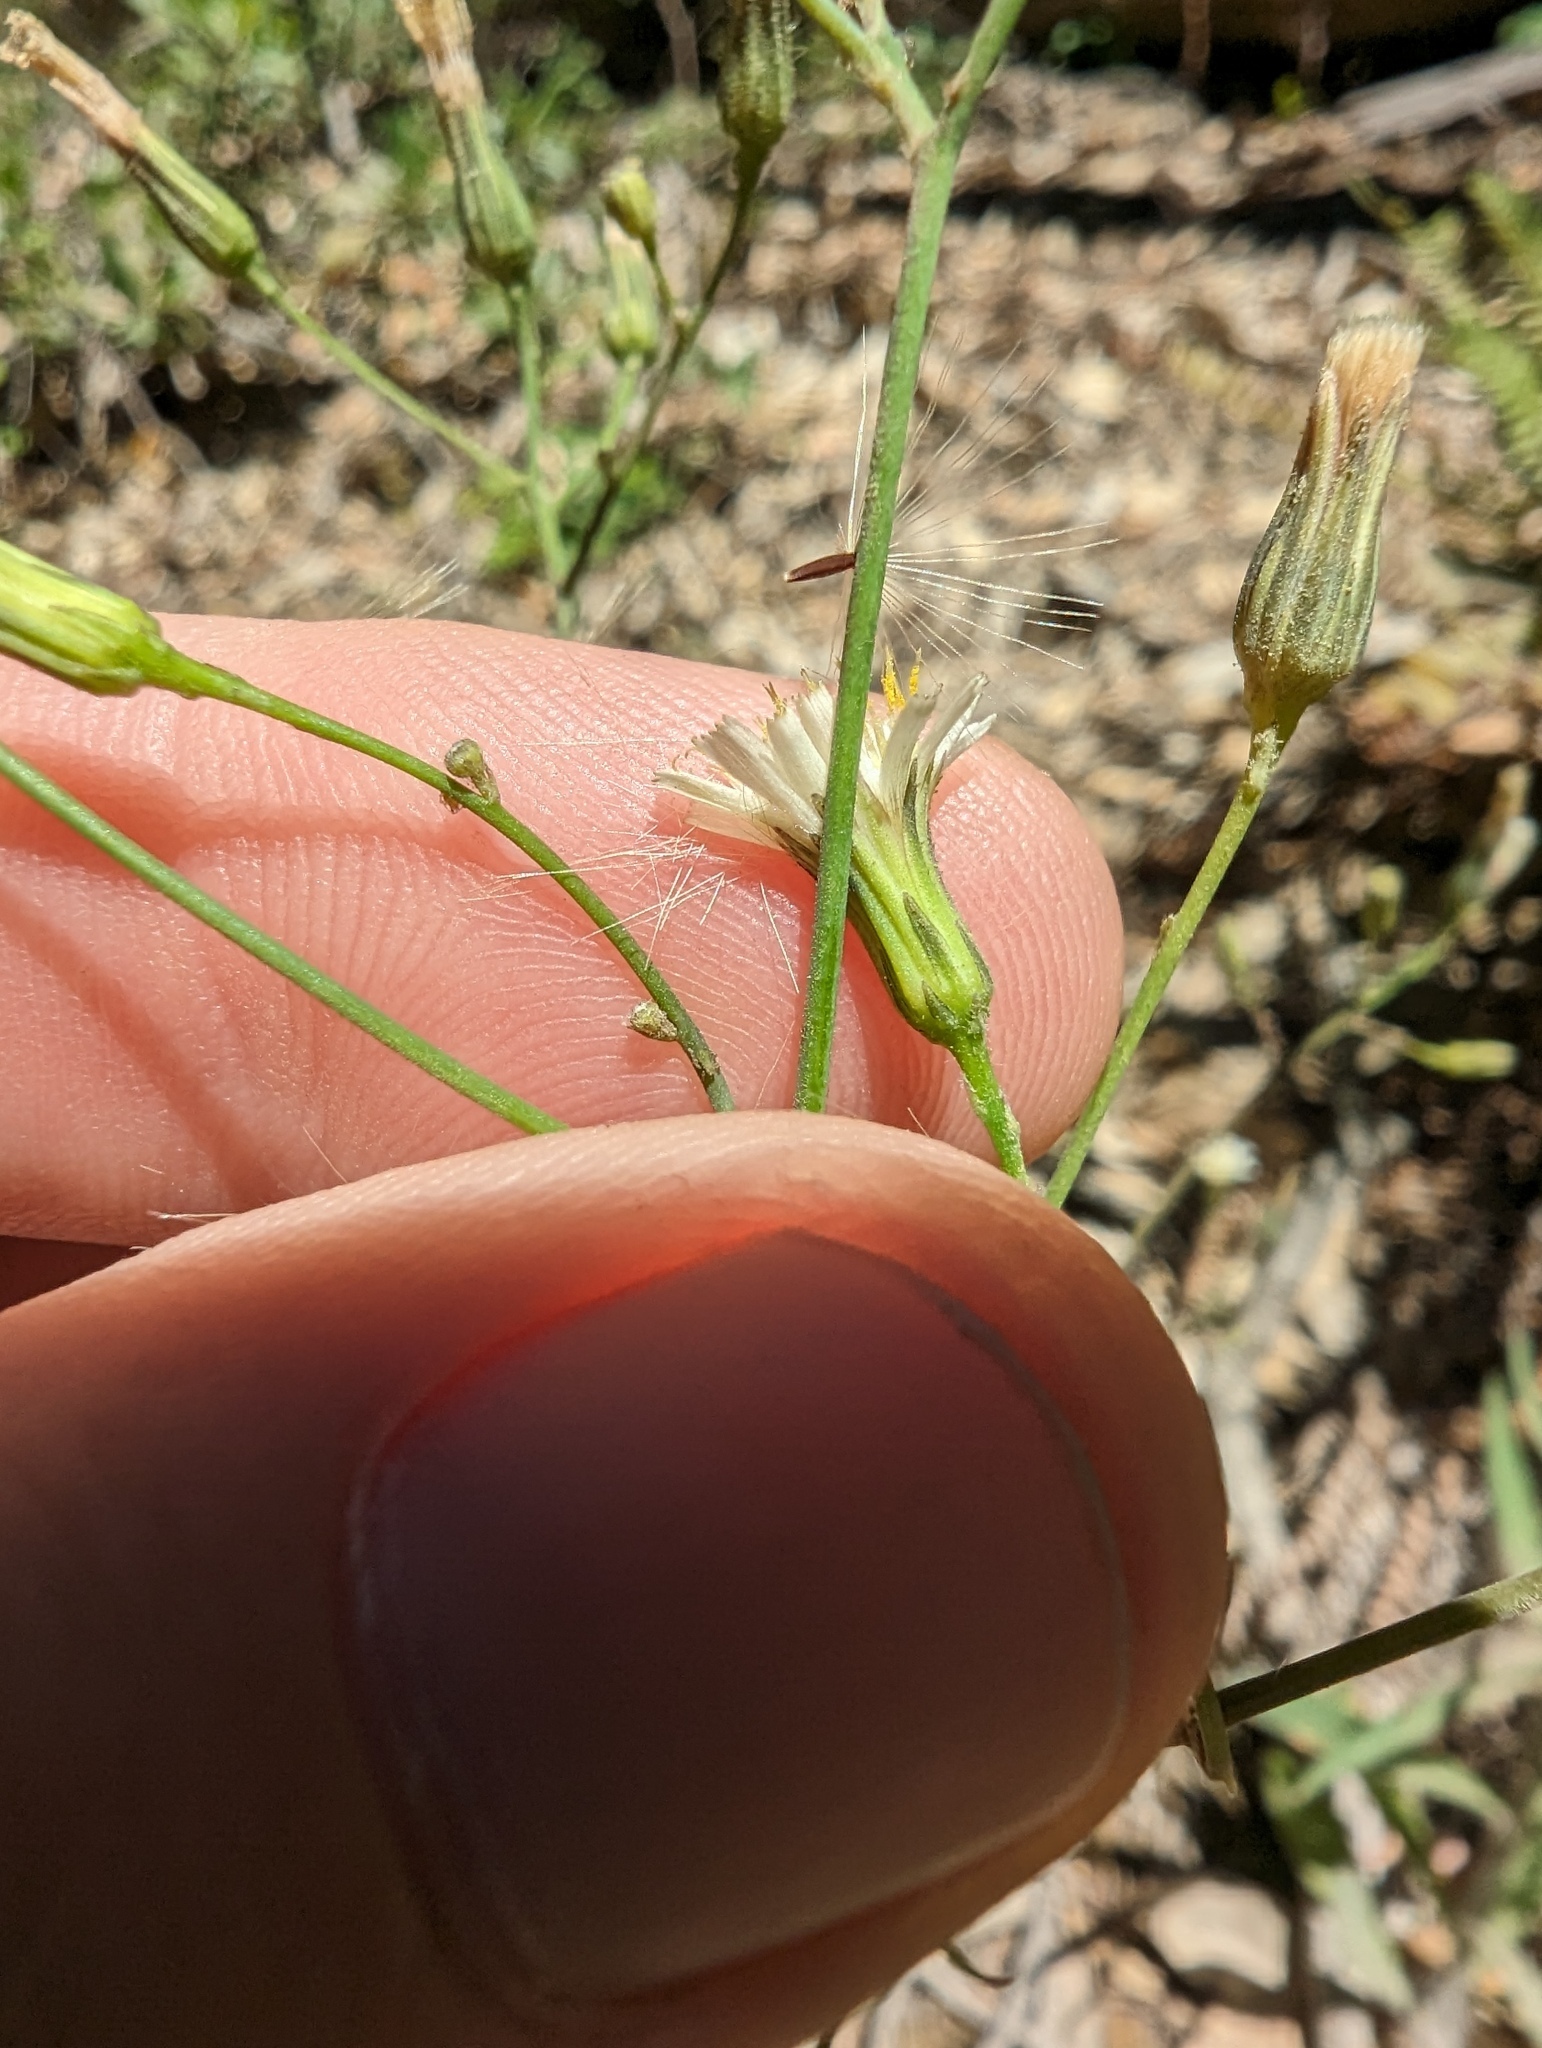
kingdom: Plantae
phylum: Tracheophyta
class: Magnoliopsida
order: Asterales
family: Asteraceae
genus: Hieracium
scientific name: Hieracium albiflorum
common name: White hawkweed
